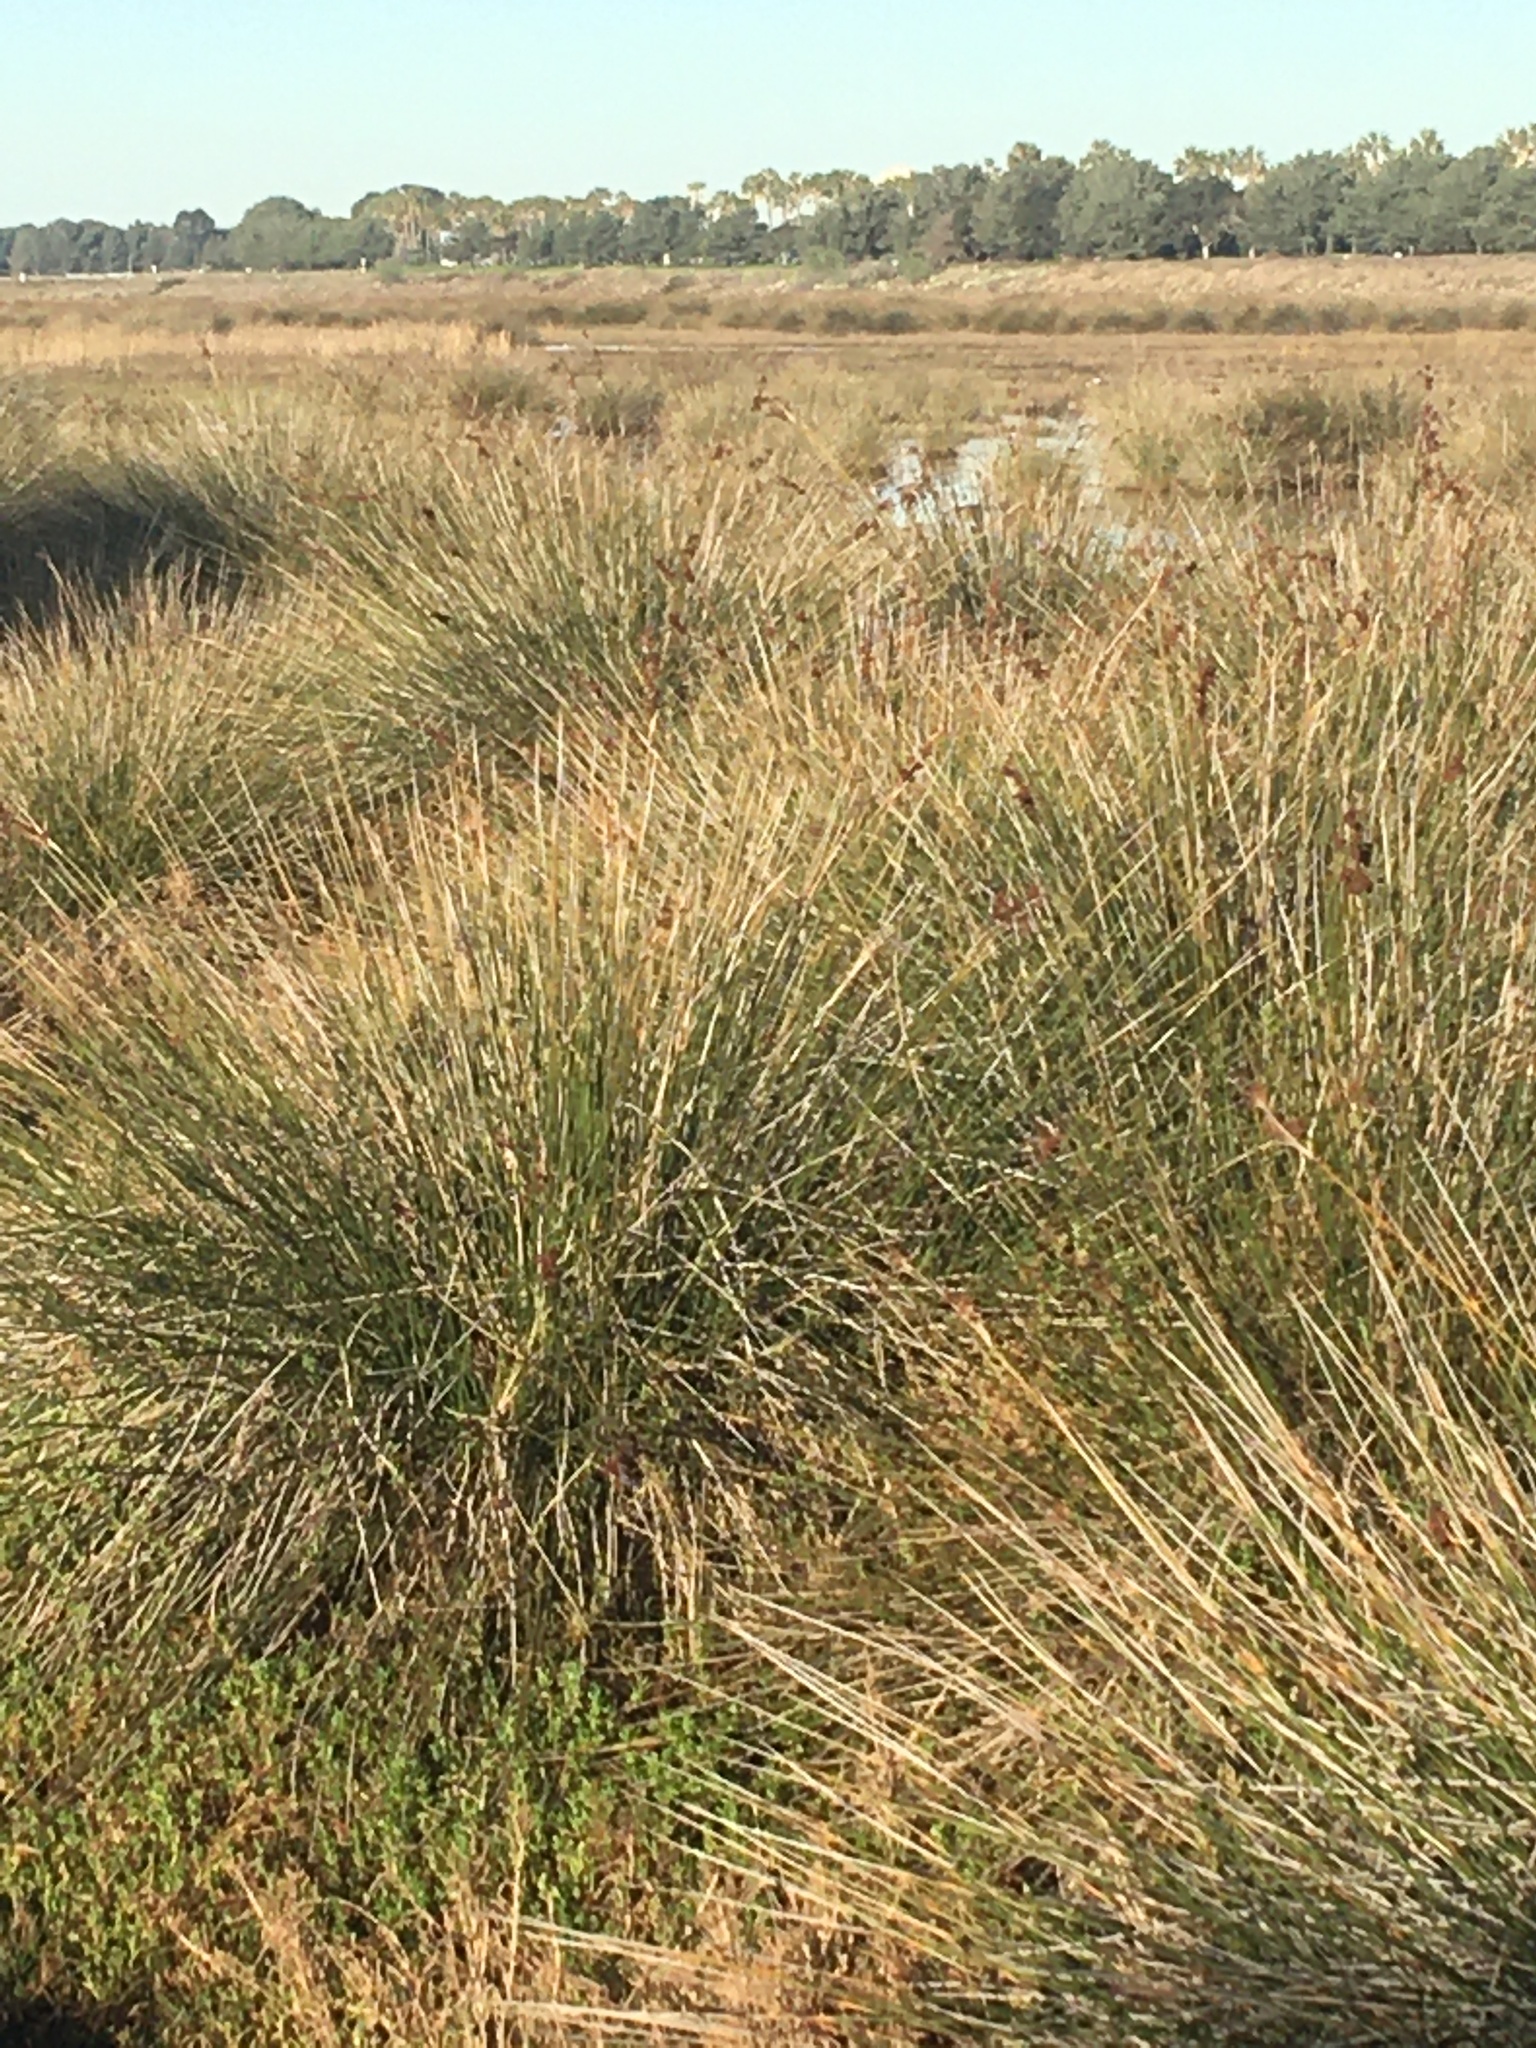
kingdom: Plantae
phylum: Tracheophyta
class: Liliopsida
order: Poales
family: Juncaceae
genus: Juncus
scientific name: Juncus acutus
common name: Sharp rush
